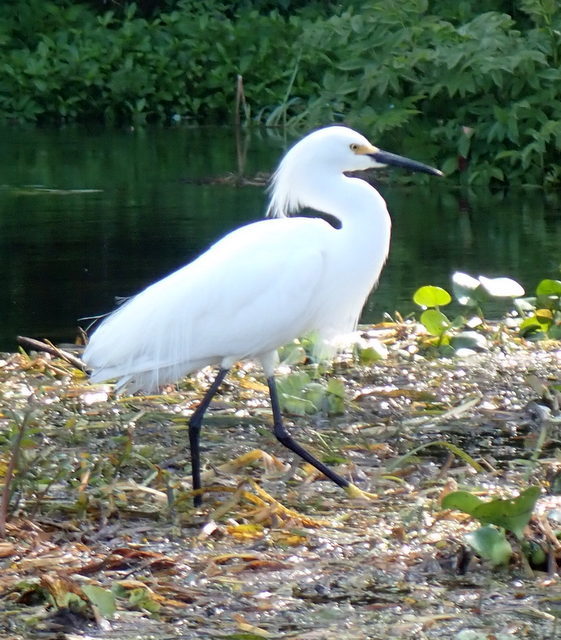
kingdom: Animalia
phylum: Chordata
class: Aves
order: Pelecaniformes
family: Ardeidae
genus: Egretta
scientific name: Egretta thula
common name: Snowy egret
